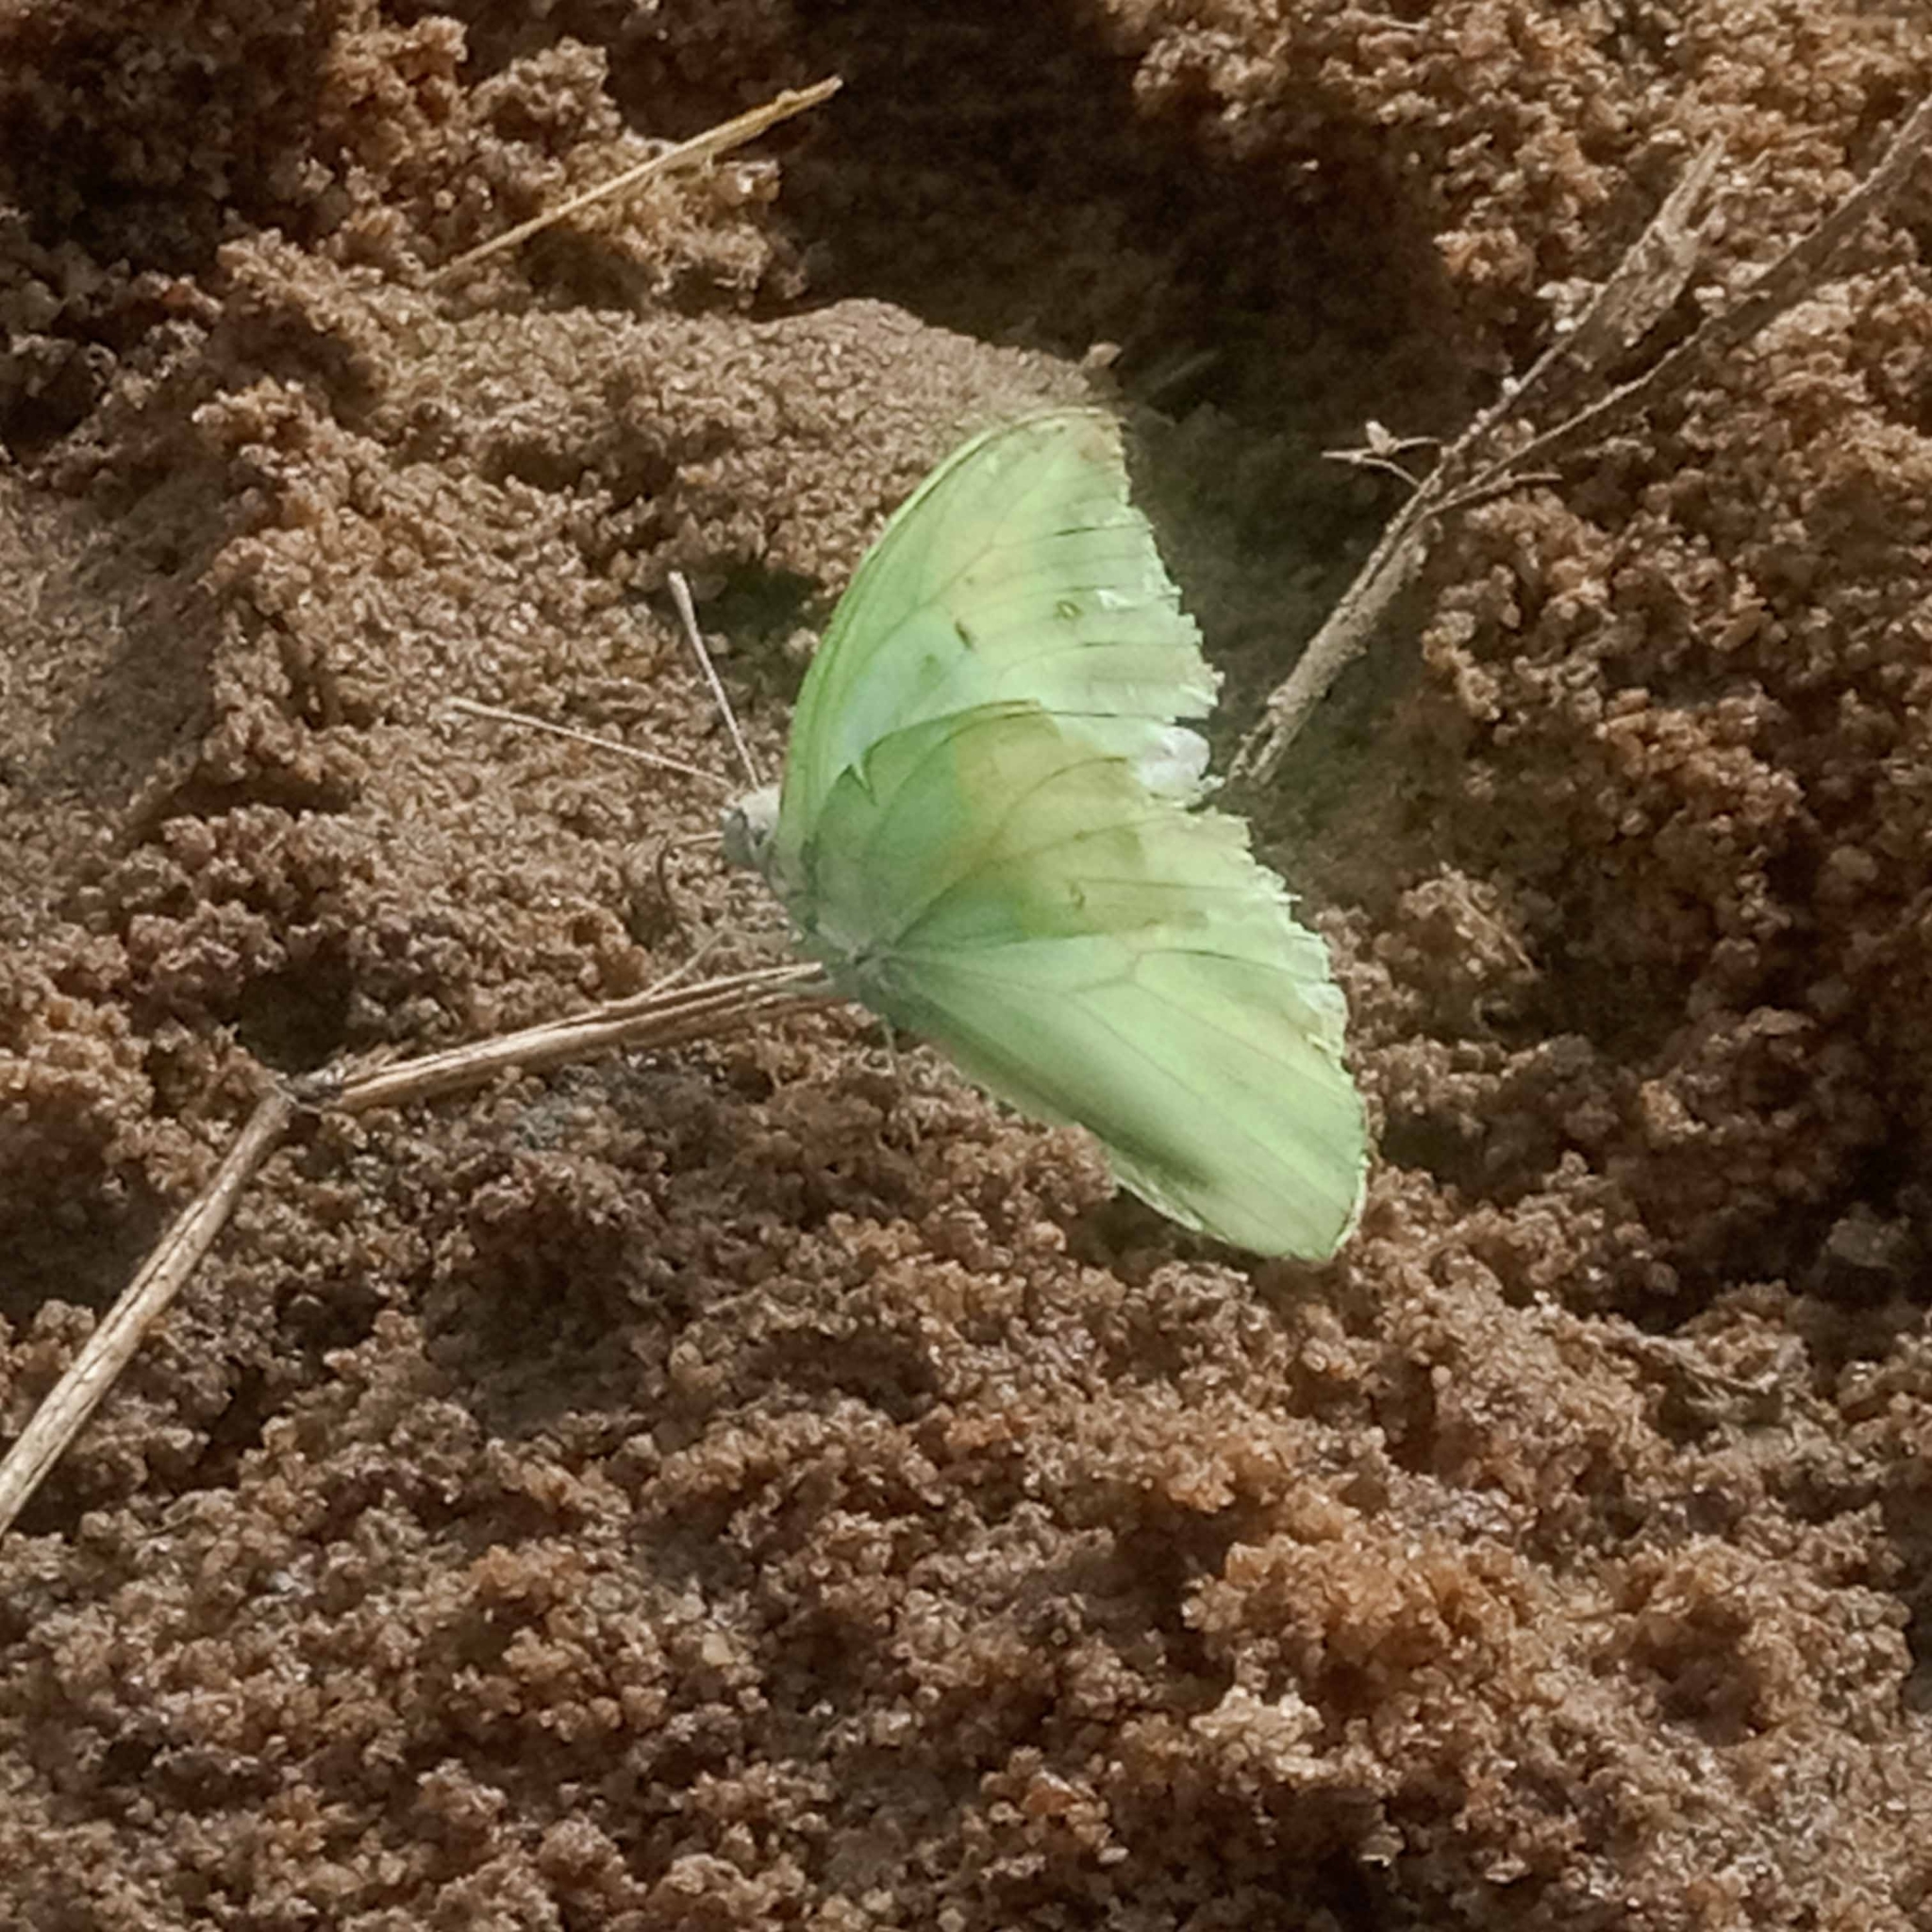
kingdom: Animalia
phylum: Arthropoda
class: Insecta
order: Lepidoptera
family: Pieridae
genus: Catopsilia
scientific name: Catopsilia florella
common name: African migrant
